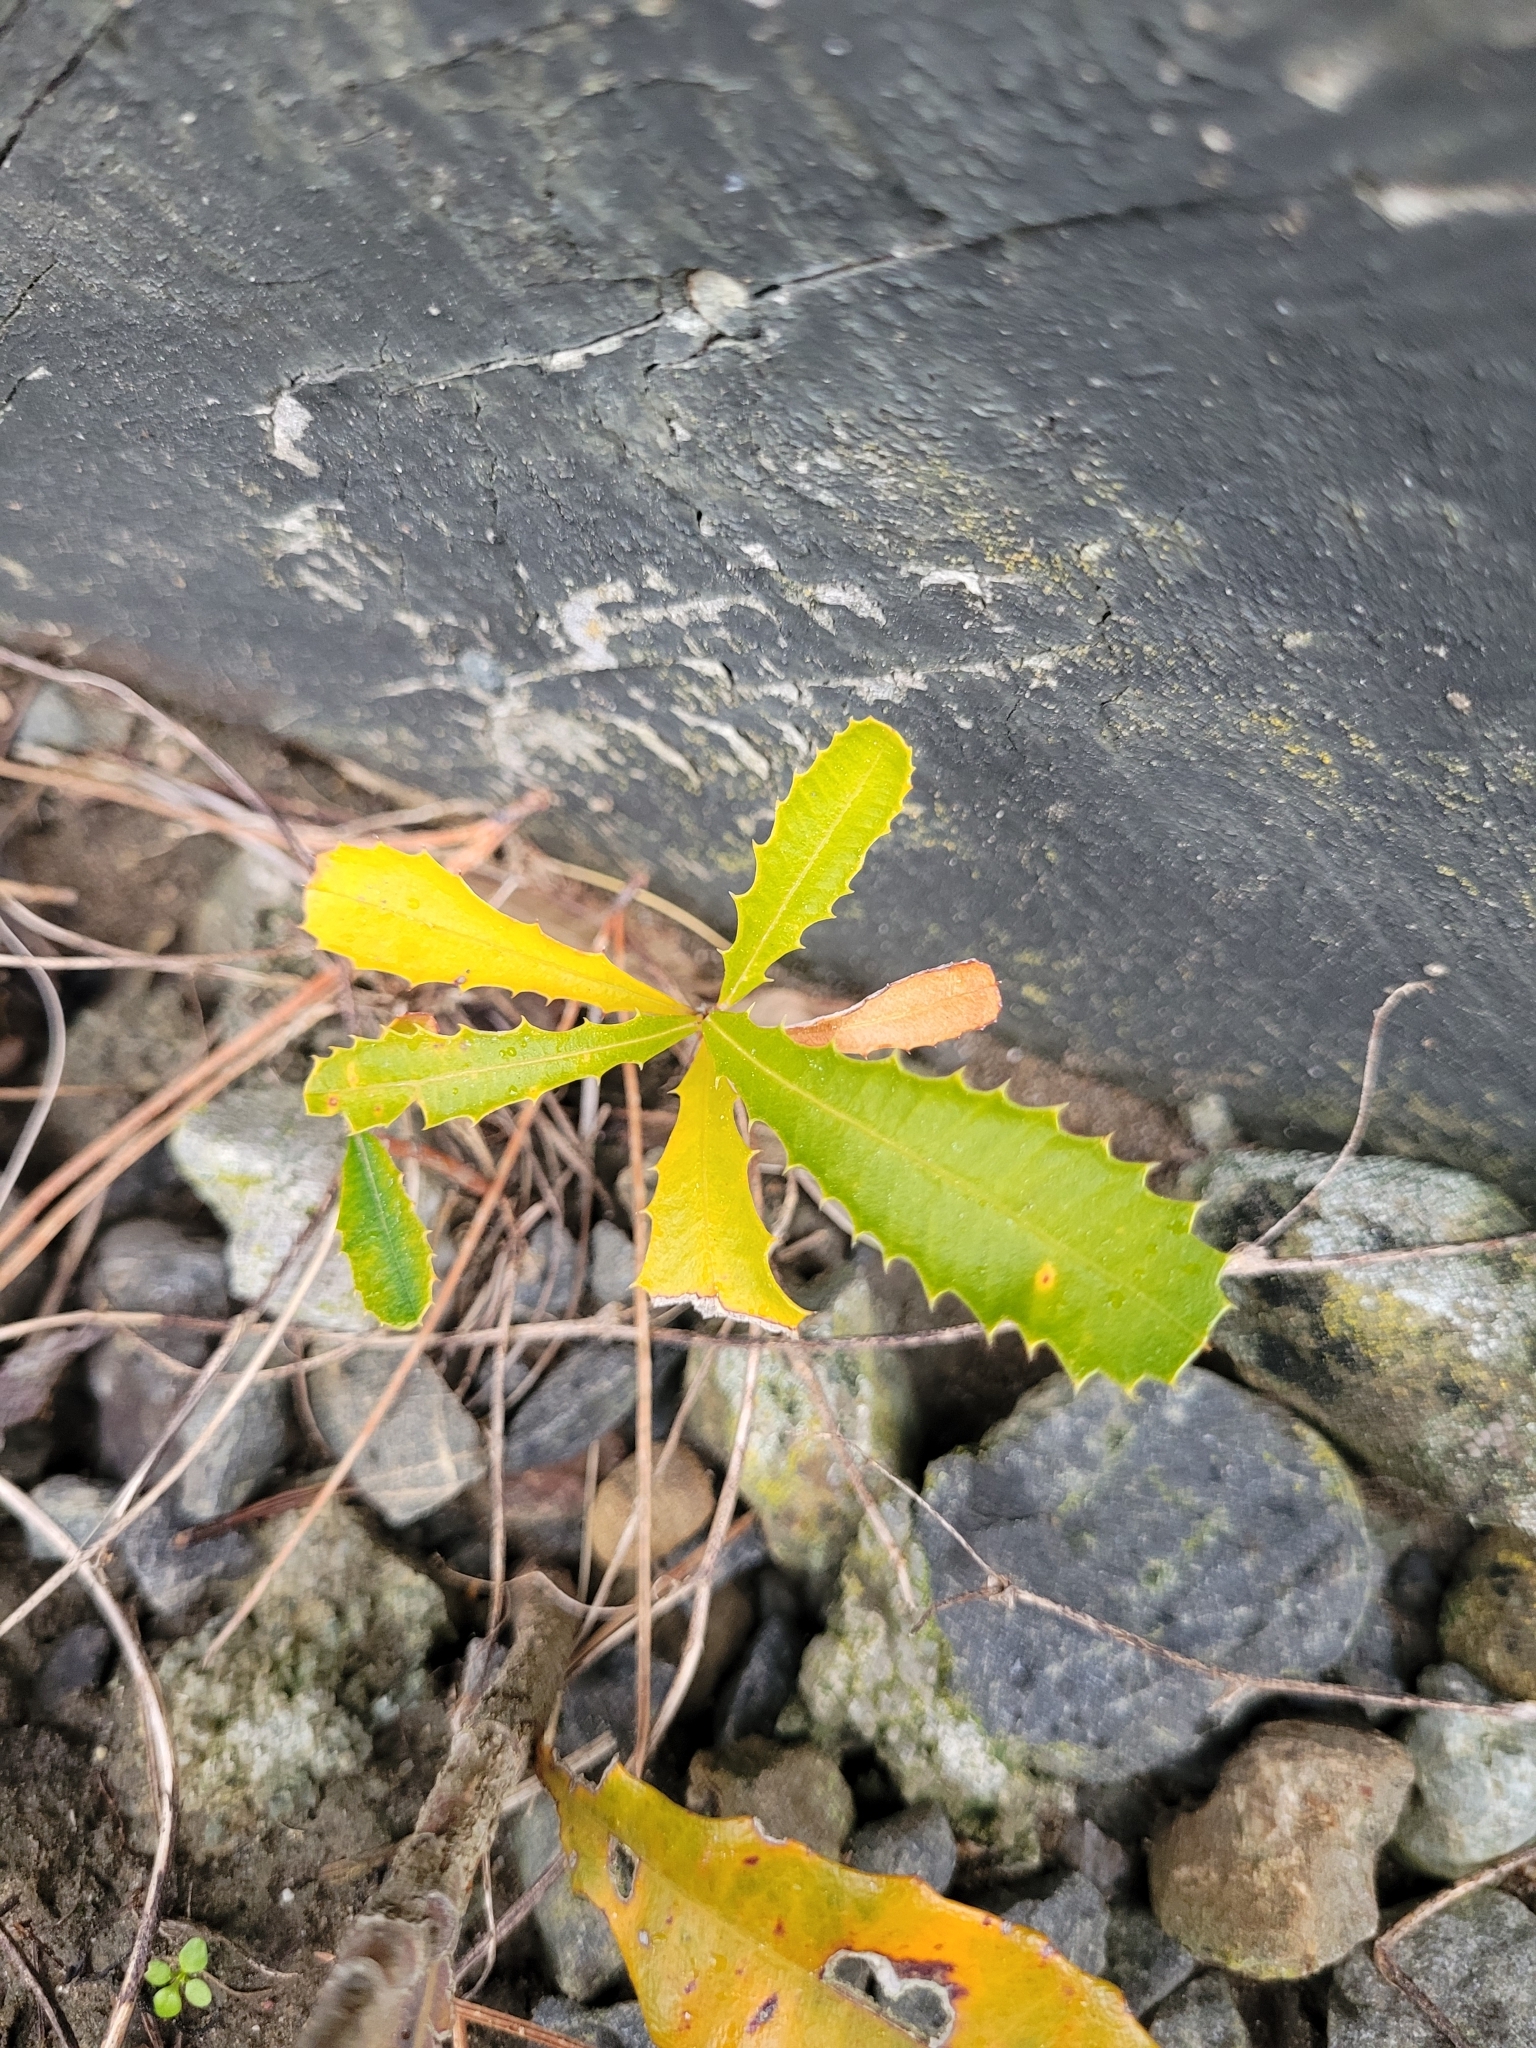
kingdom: Plantae
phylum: Tracheophyta
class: Magnoliopsida
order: Proteales
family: Proteaceae
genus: Banksia
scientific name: Banksia integrifolia
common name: White-honeysuckle
